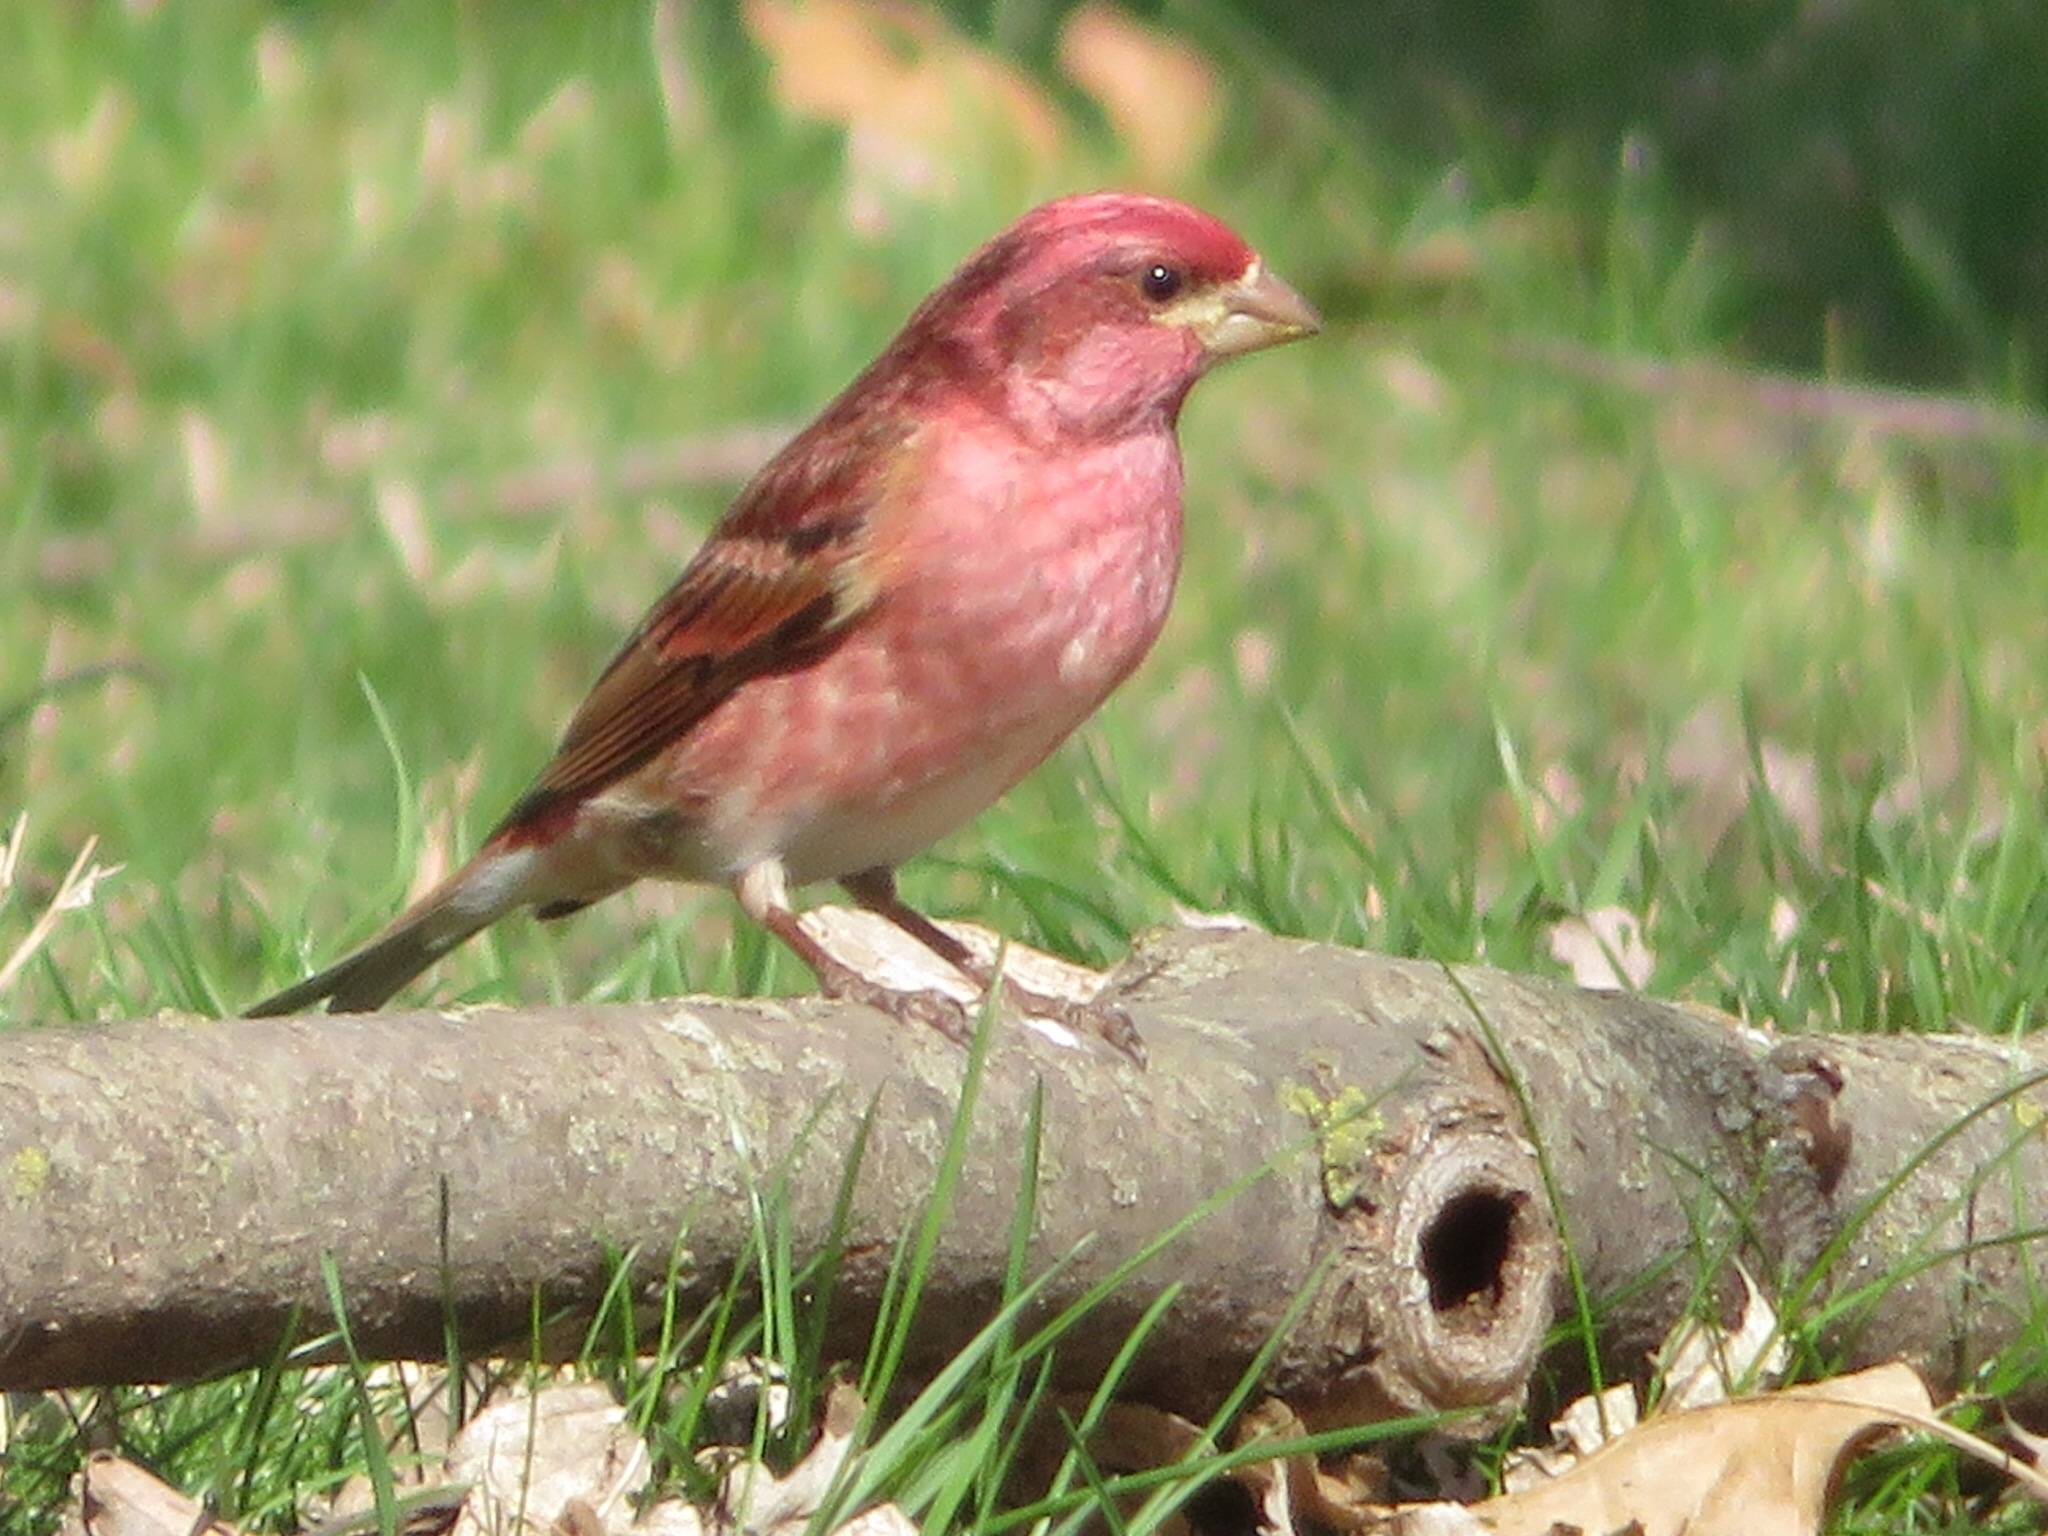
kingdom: Animalia
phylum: Chordata
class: Aves
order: Passeriformes
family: Fringillidae
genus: Haemorhous
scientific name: Haemorhous purpureus
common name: Purple finch
